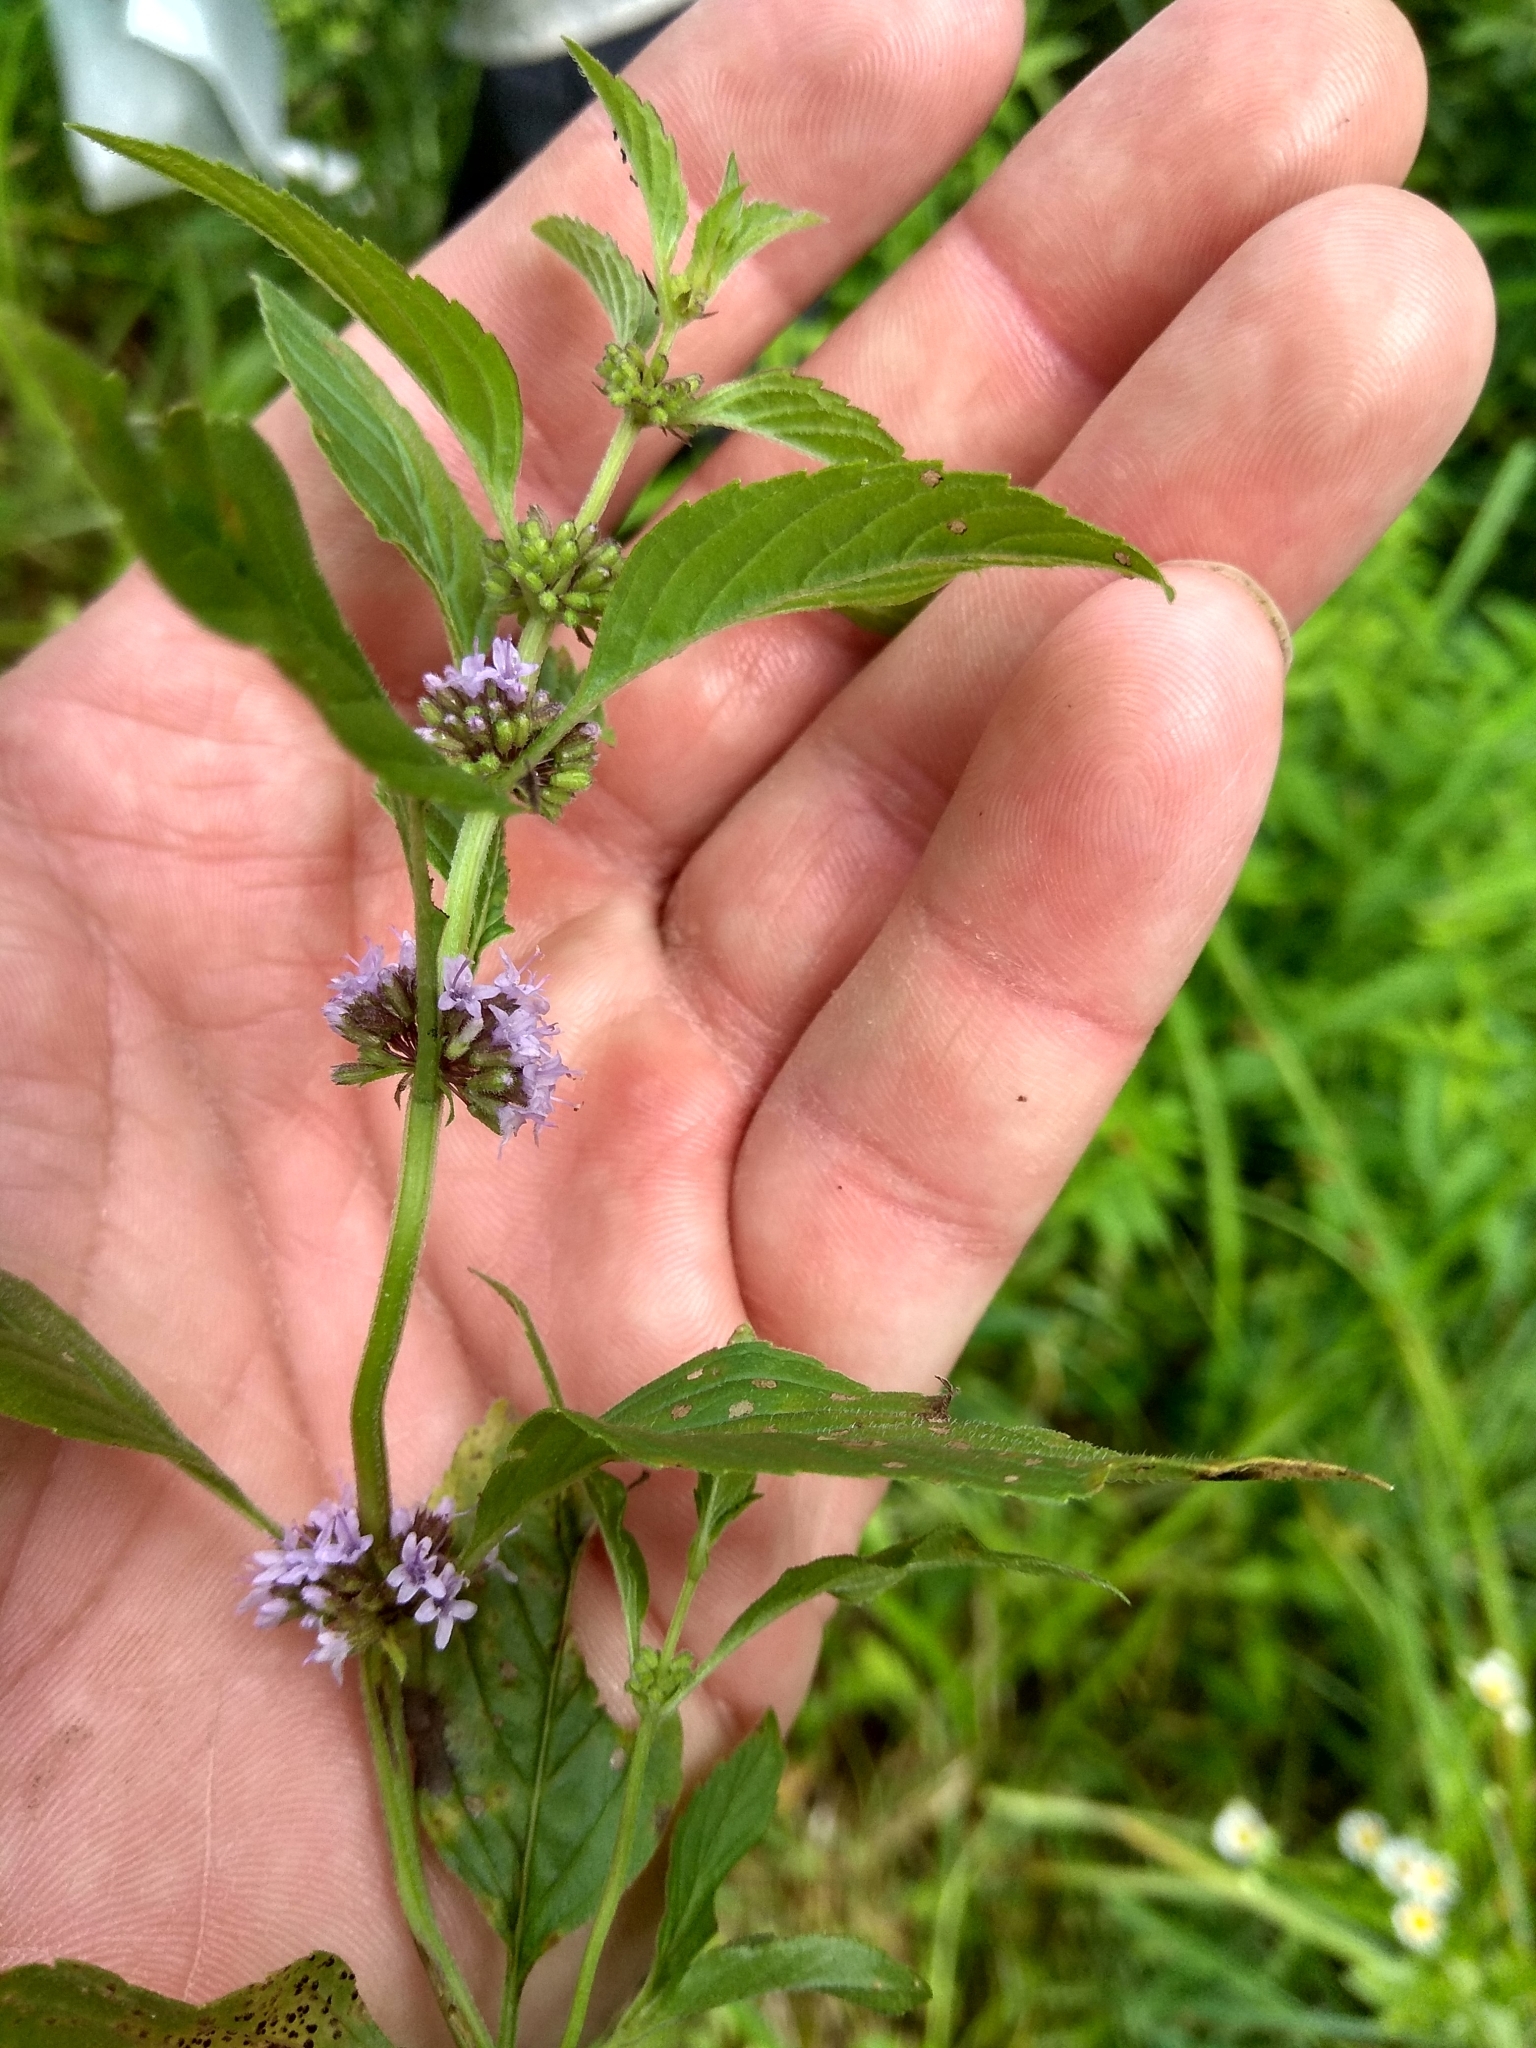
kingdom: Plantae
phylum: Tracheophyta
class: Magnoliopsida
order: Lamiales
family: Lamiaceae
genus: Mentha
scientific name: Mentha arvensis
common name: Corn mint
